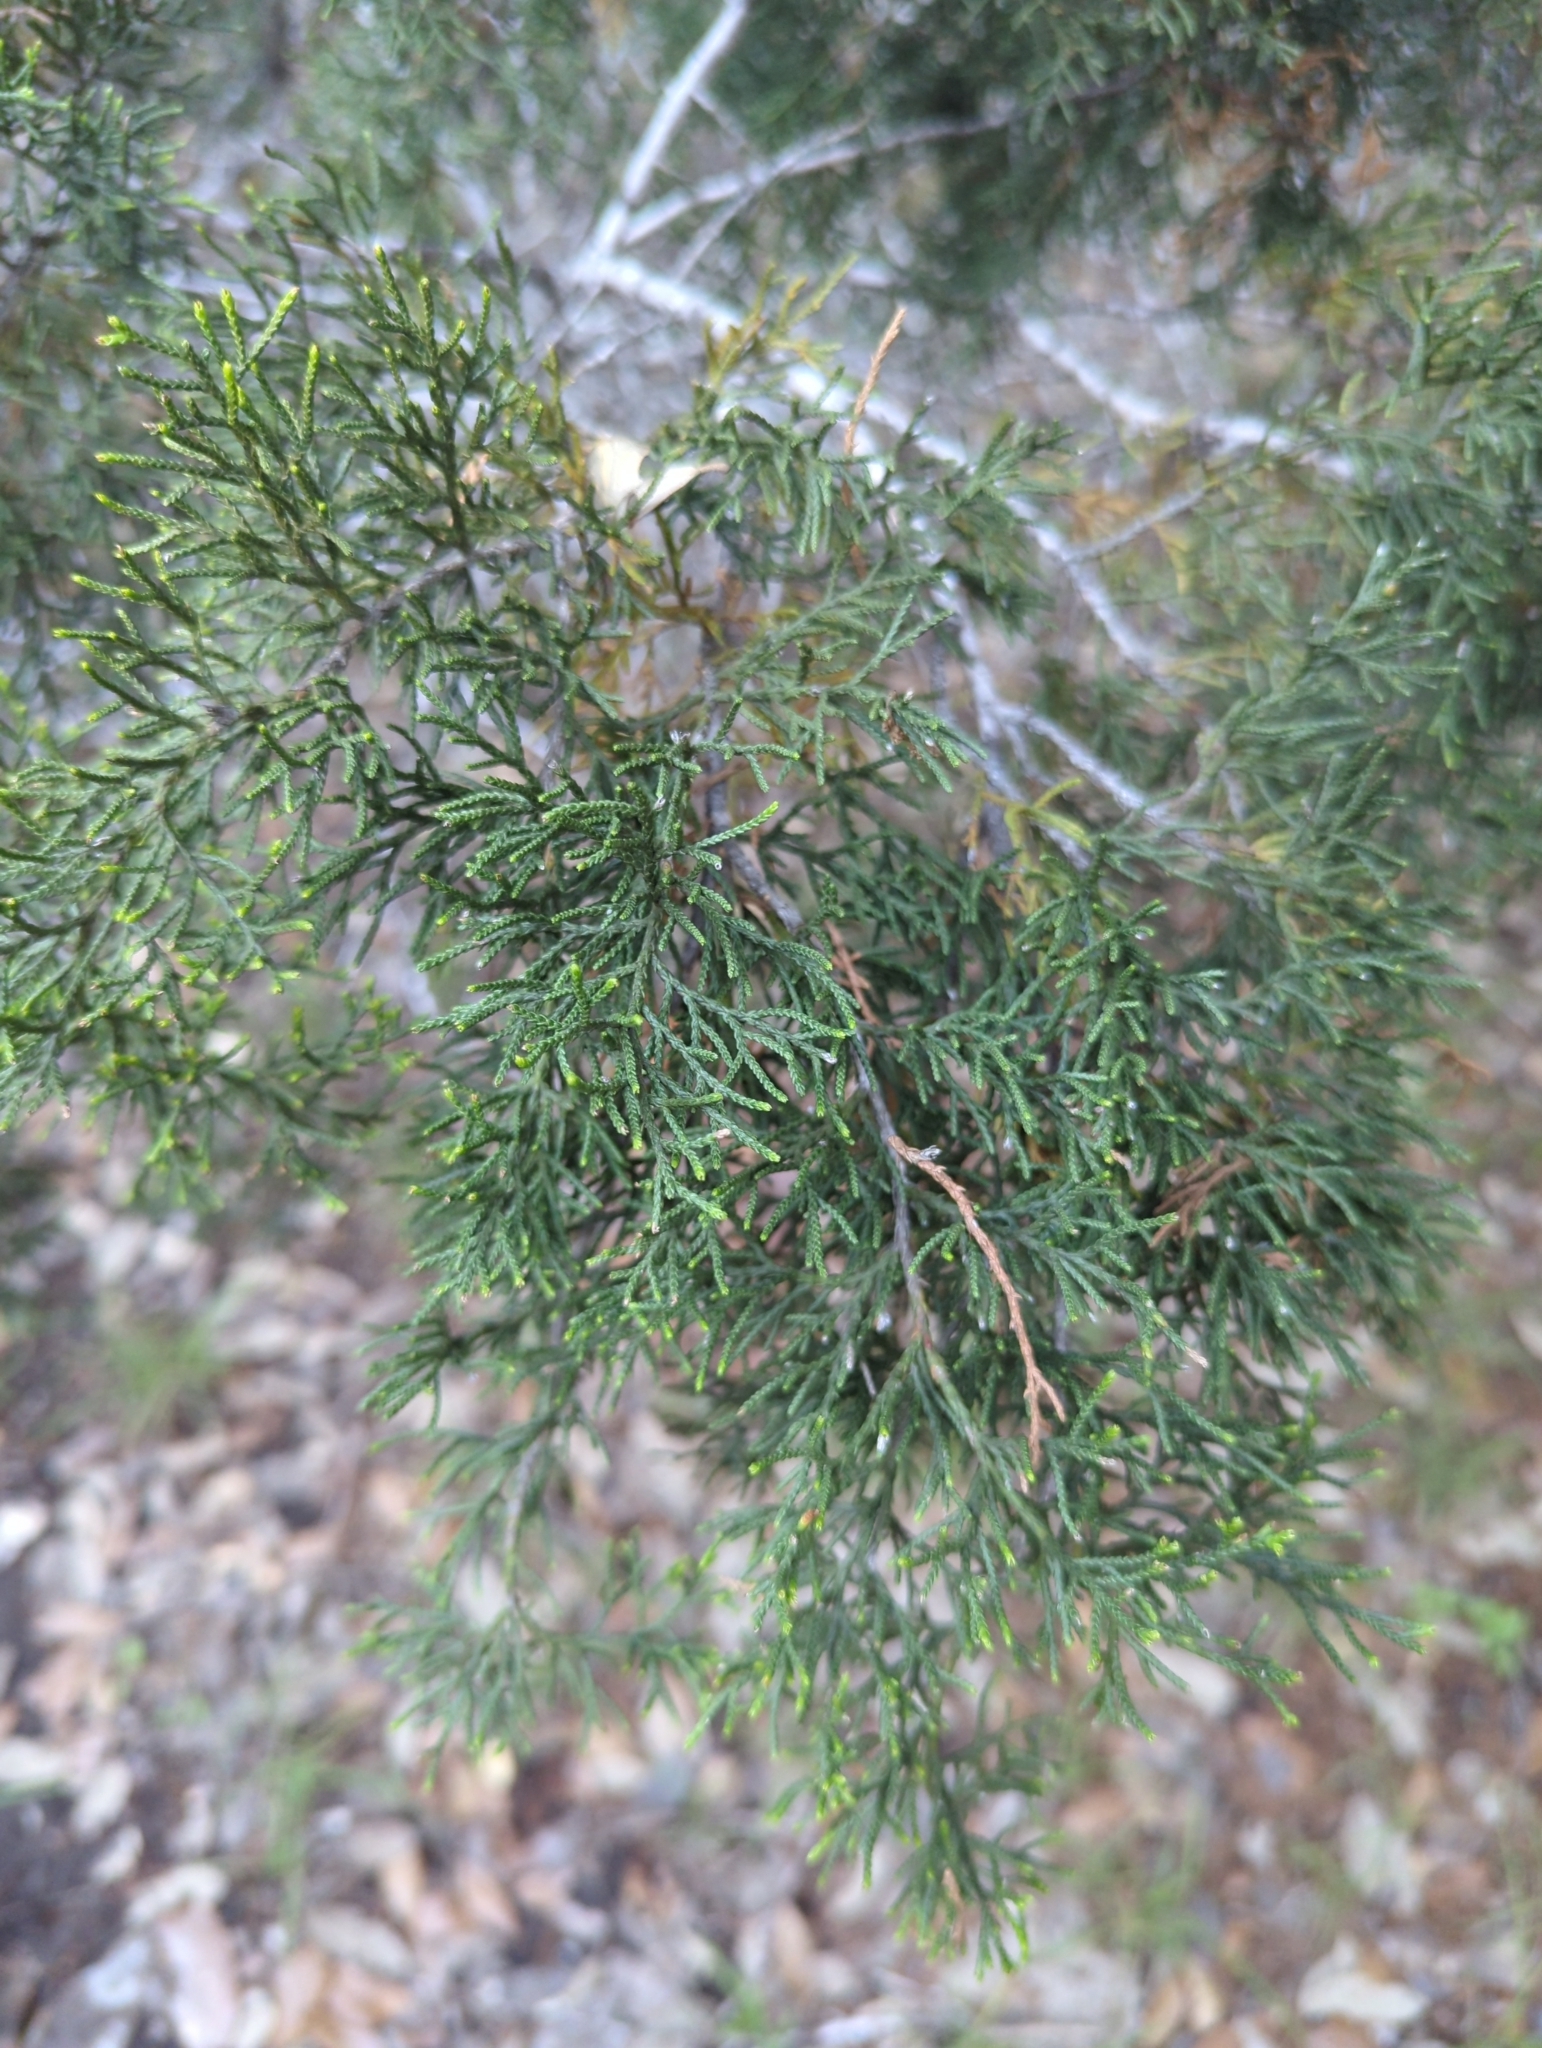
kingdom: Plantae
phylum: Tracheophyta
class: Pinopsida
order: Pinales
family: Cupressaceae
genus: Juniperus
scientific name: Juniperus ashei
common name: Mexican juniper
